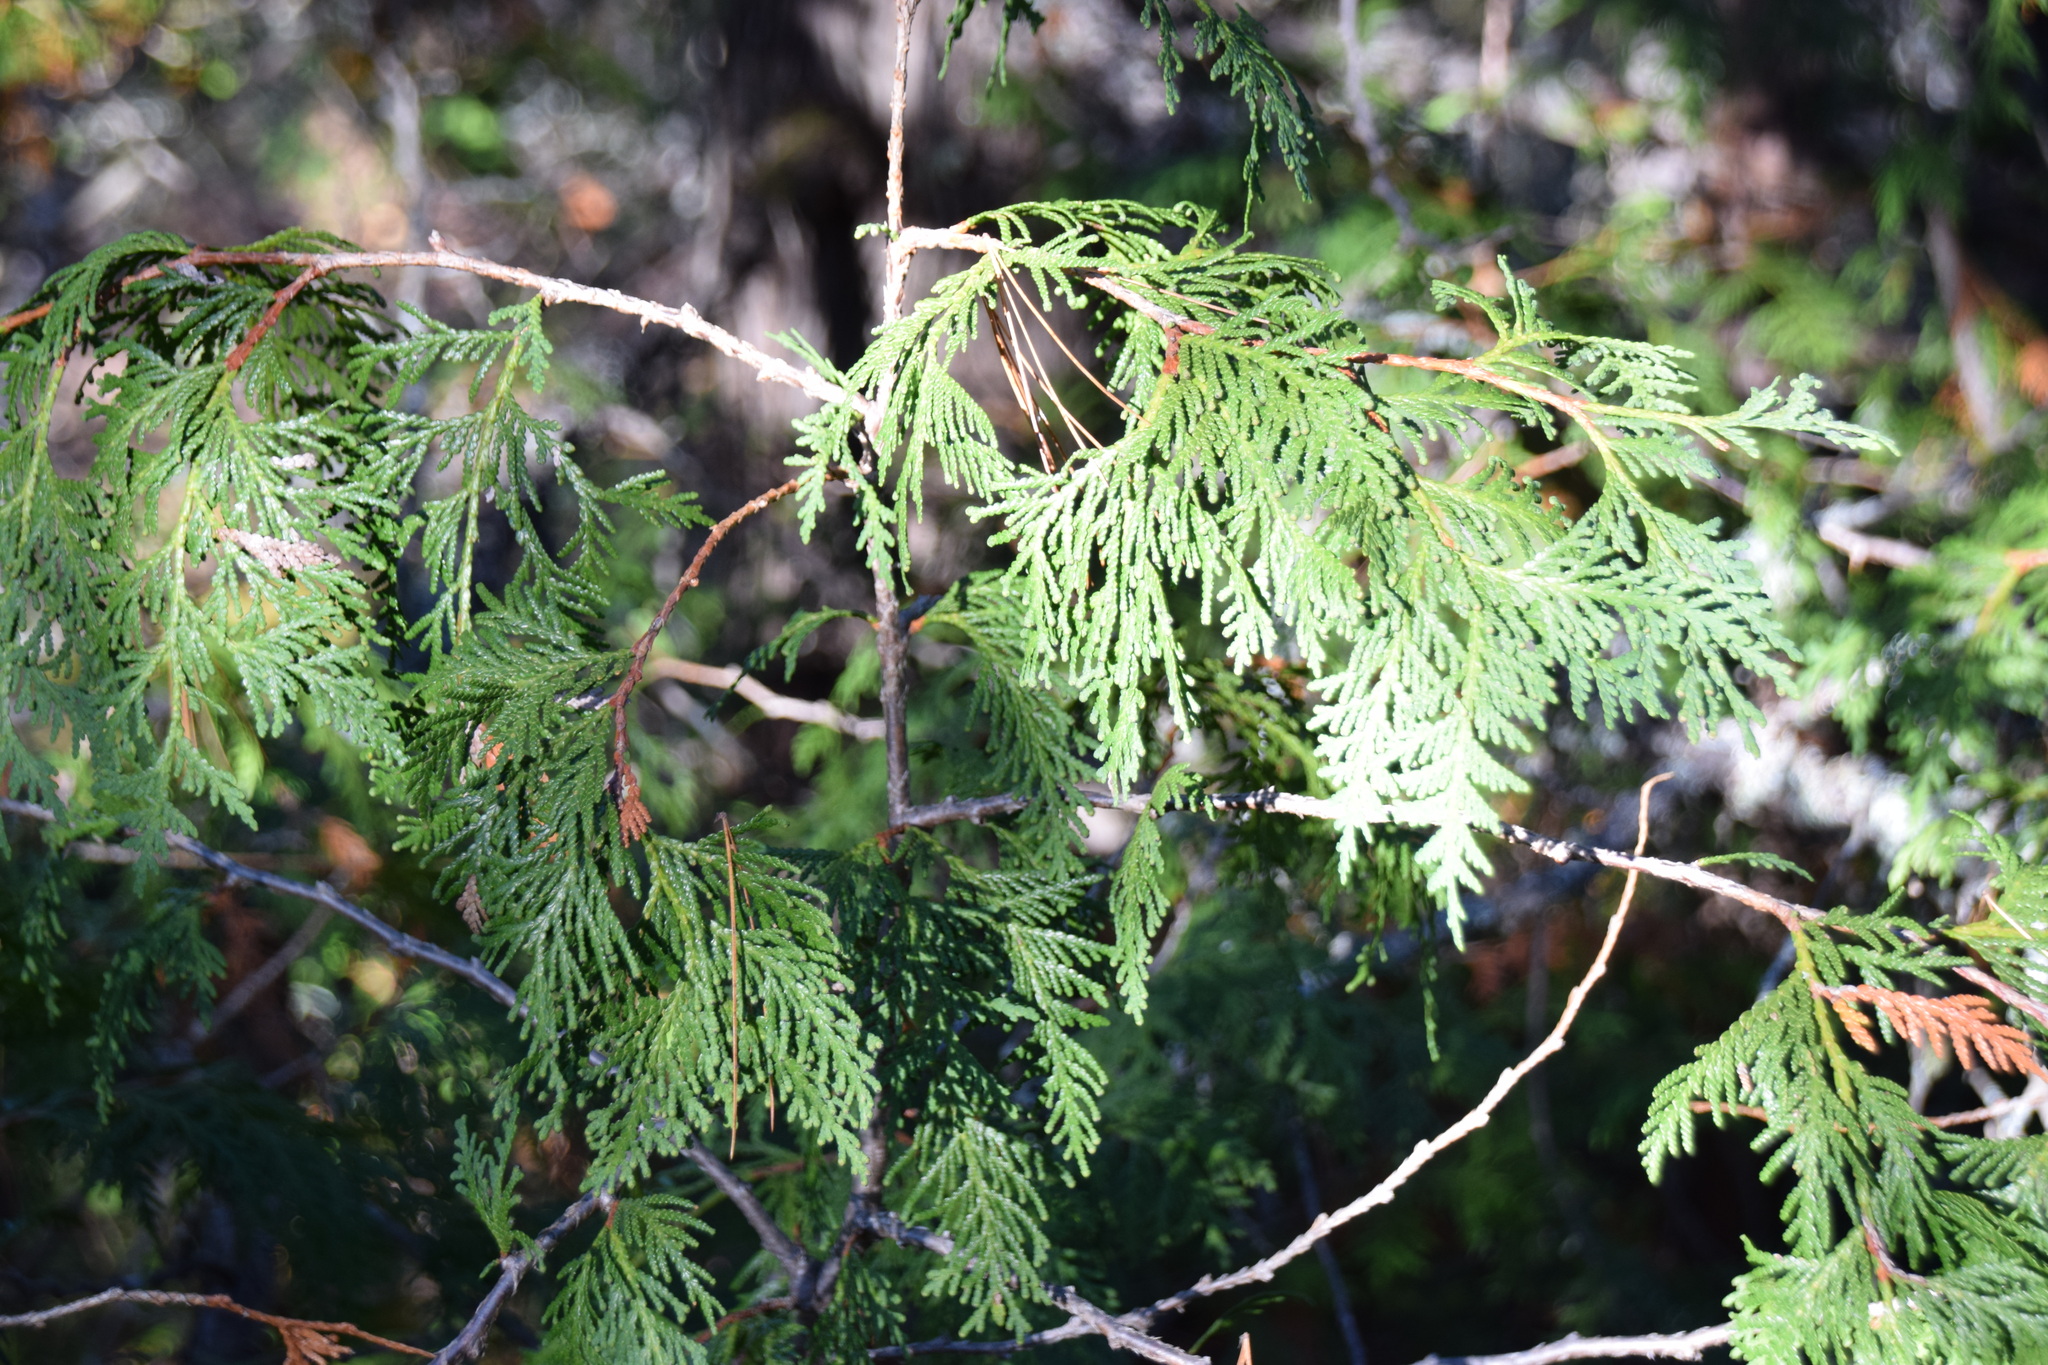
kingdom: Plantae
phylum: Tracheophyta
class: Pinopsida
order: Pinales
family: Cupressaceae
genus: Thuja
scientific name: Thuja occidentalis
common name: Northern white-cedar
